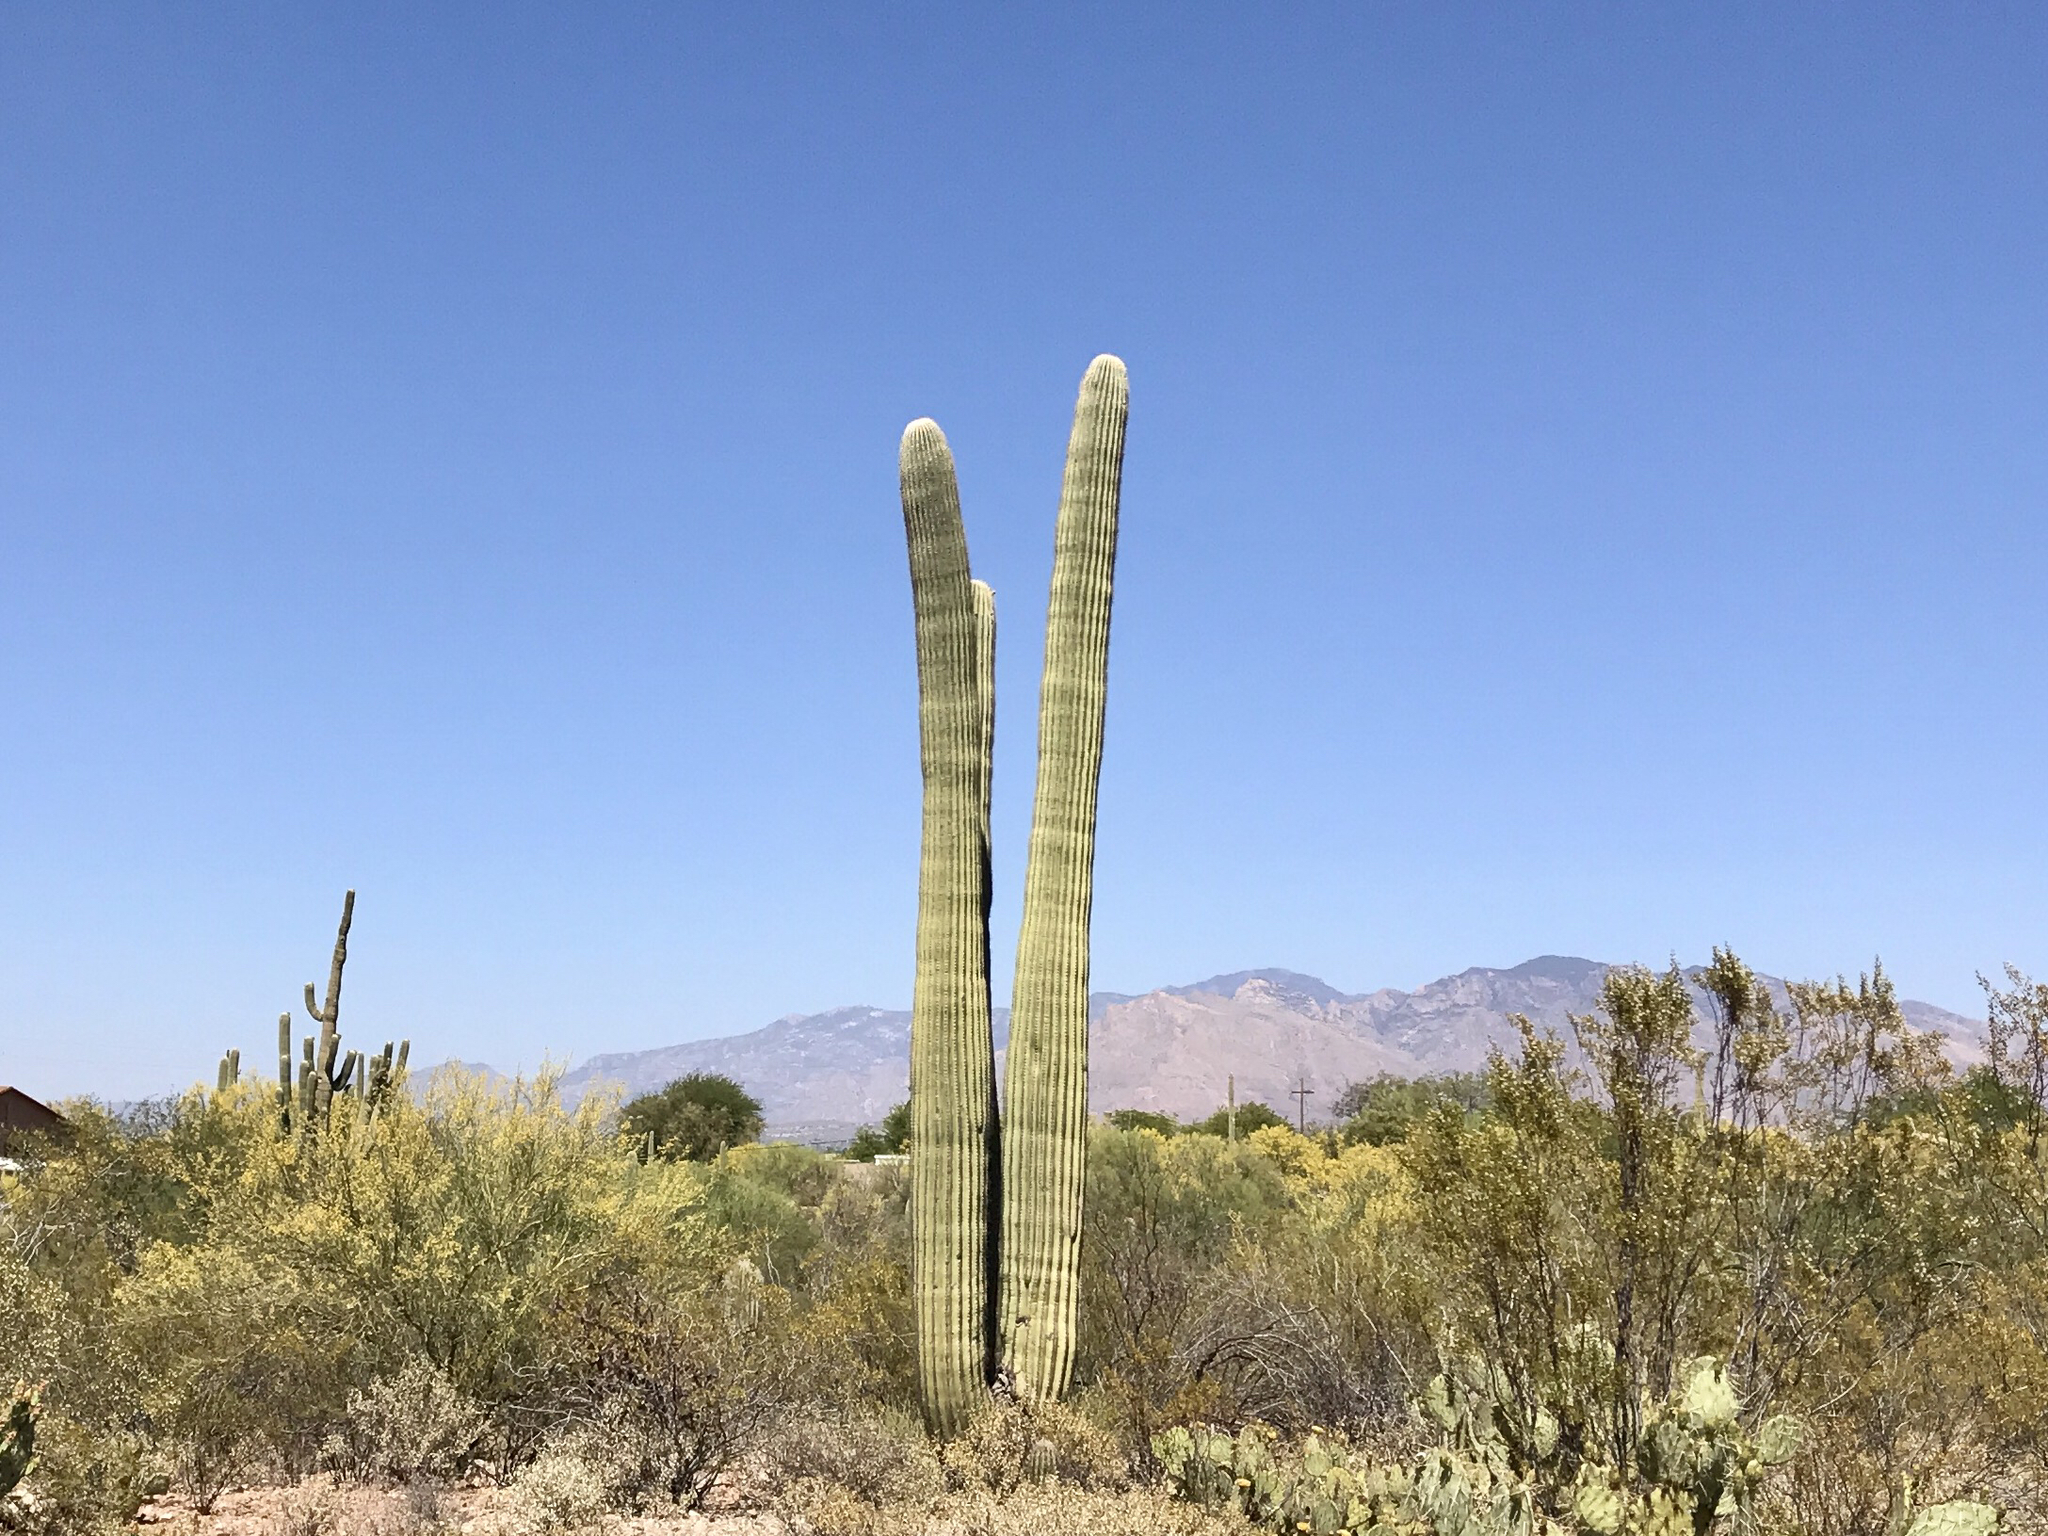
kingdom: Plantae
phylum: Tracheophyta
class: Magnoliopsida
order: Caryophyllales
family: Cactaceae
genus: Carnegiea
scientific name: Carnegiea gigantea
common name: Saguaro
